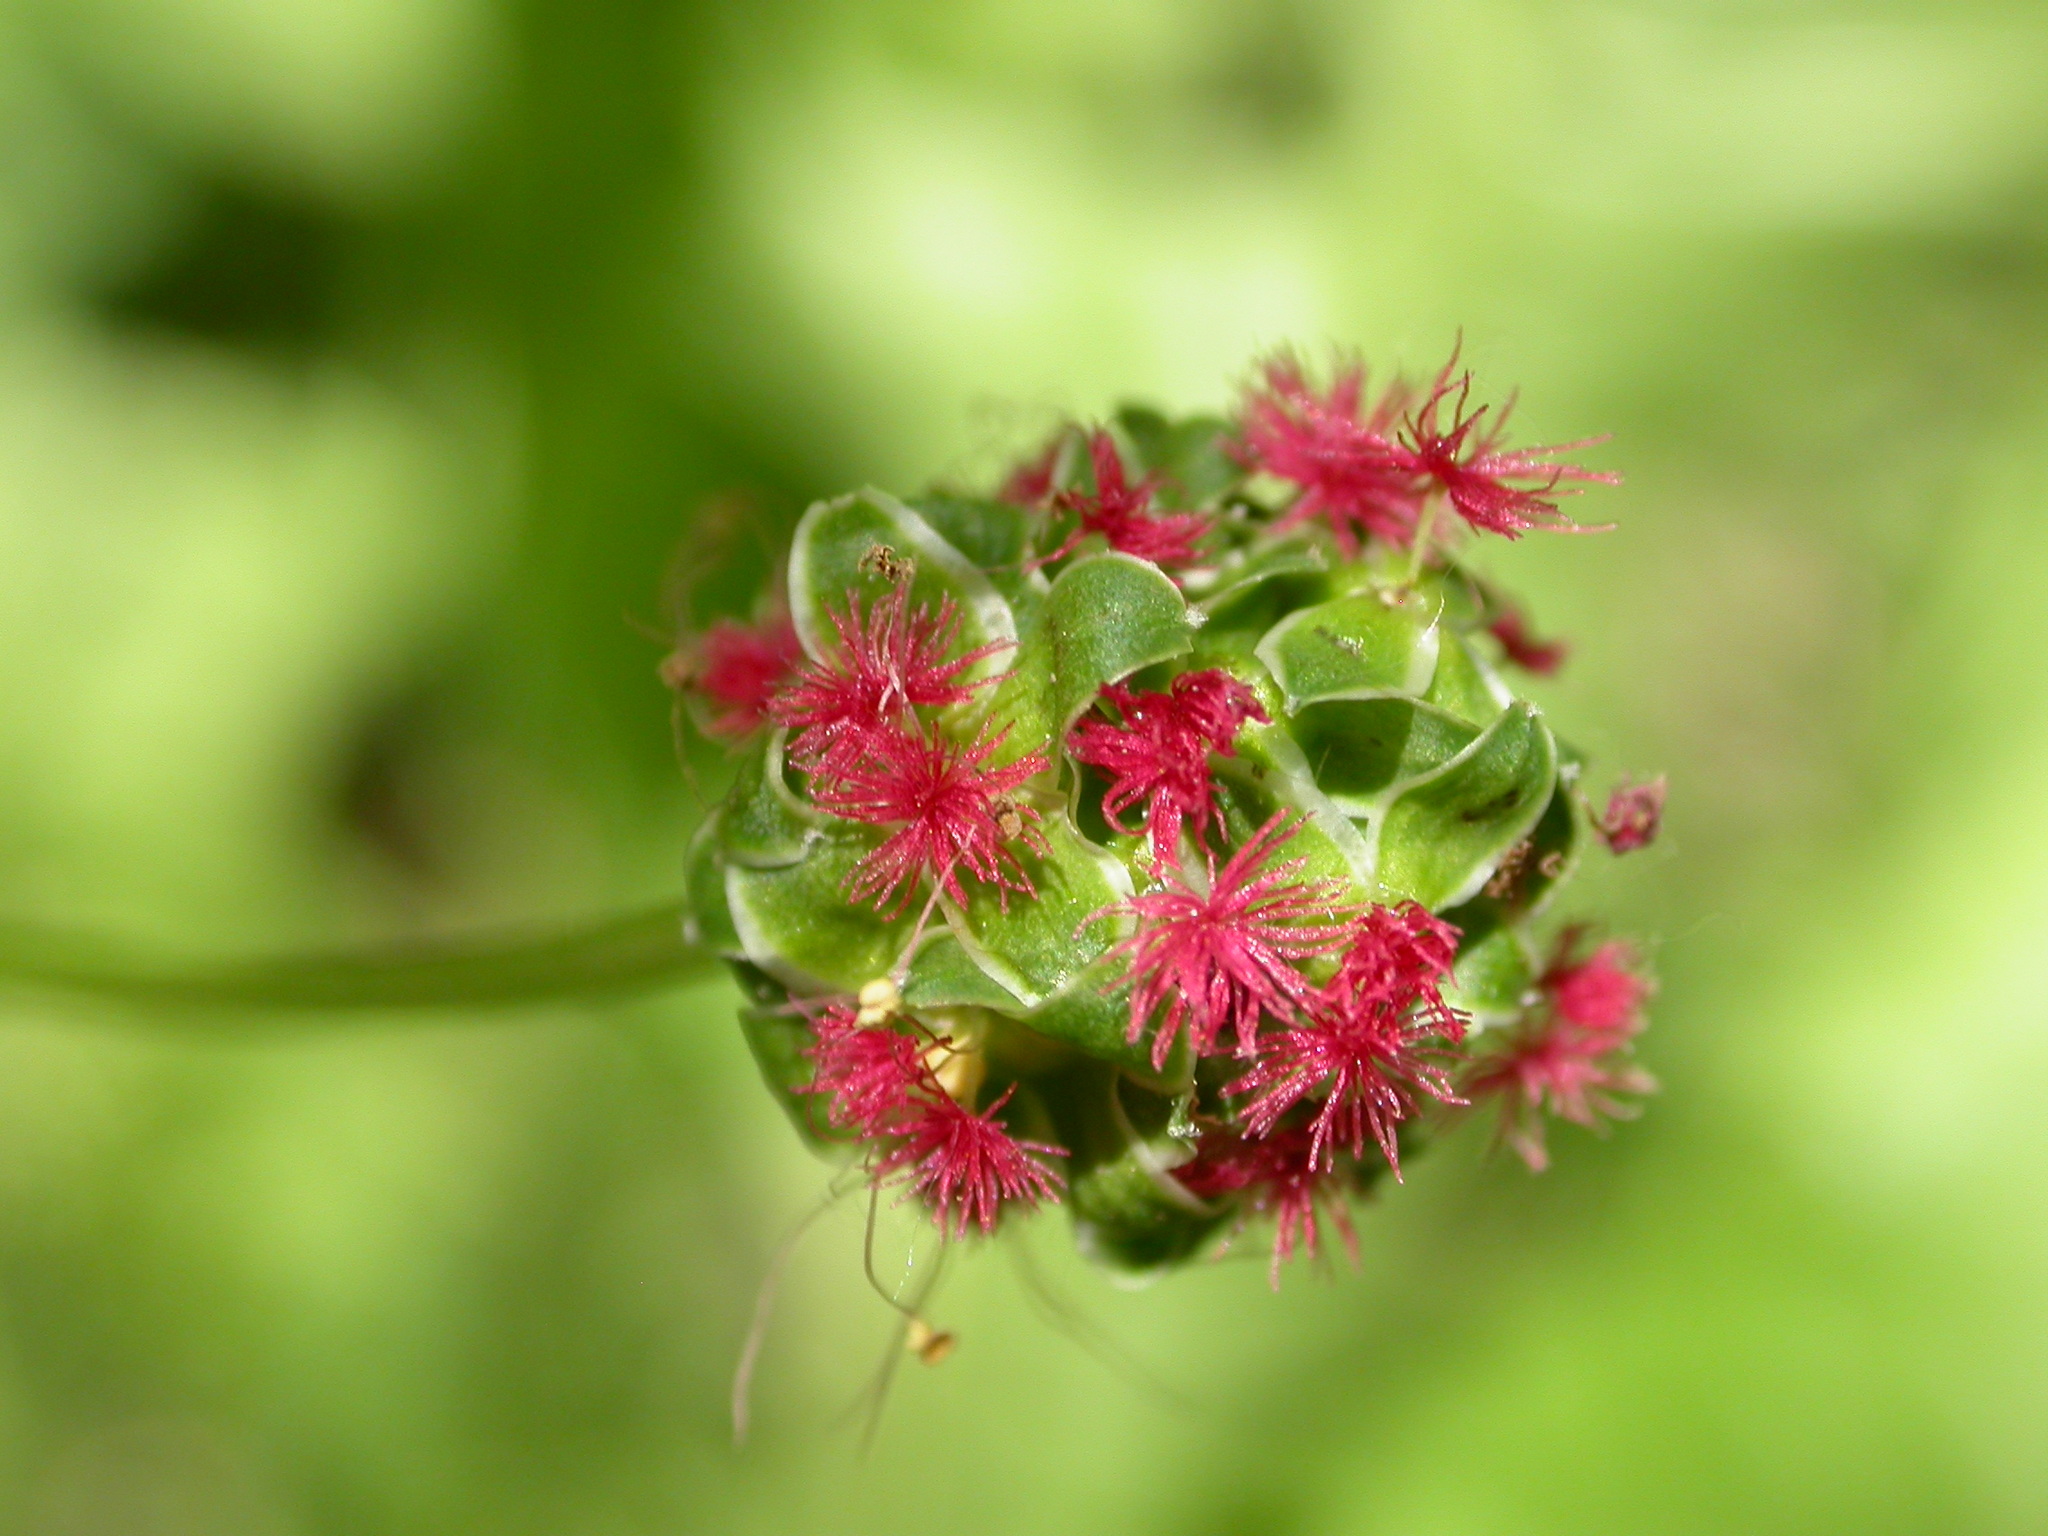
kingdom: Plantae
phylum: Tracheophyta
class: Magnoliopsida
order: Rosales
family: Rosaceae
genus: Poterium
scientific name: Poterium sanguisorba
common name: Salad burnet
